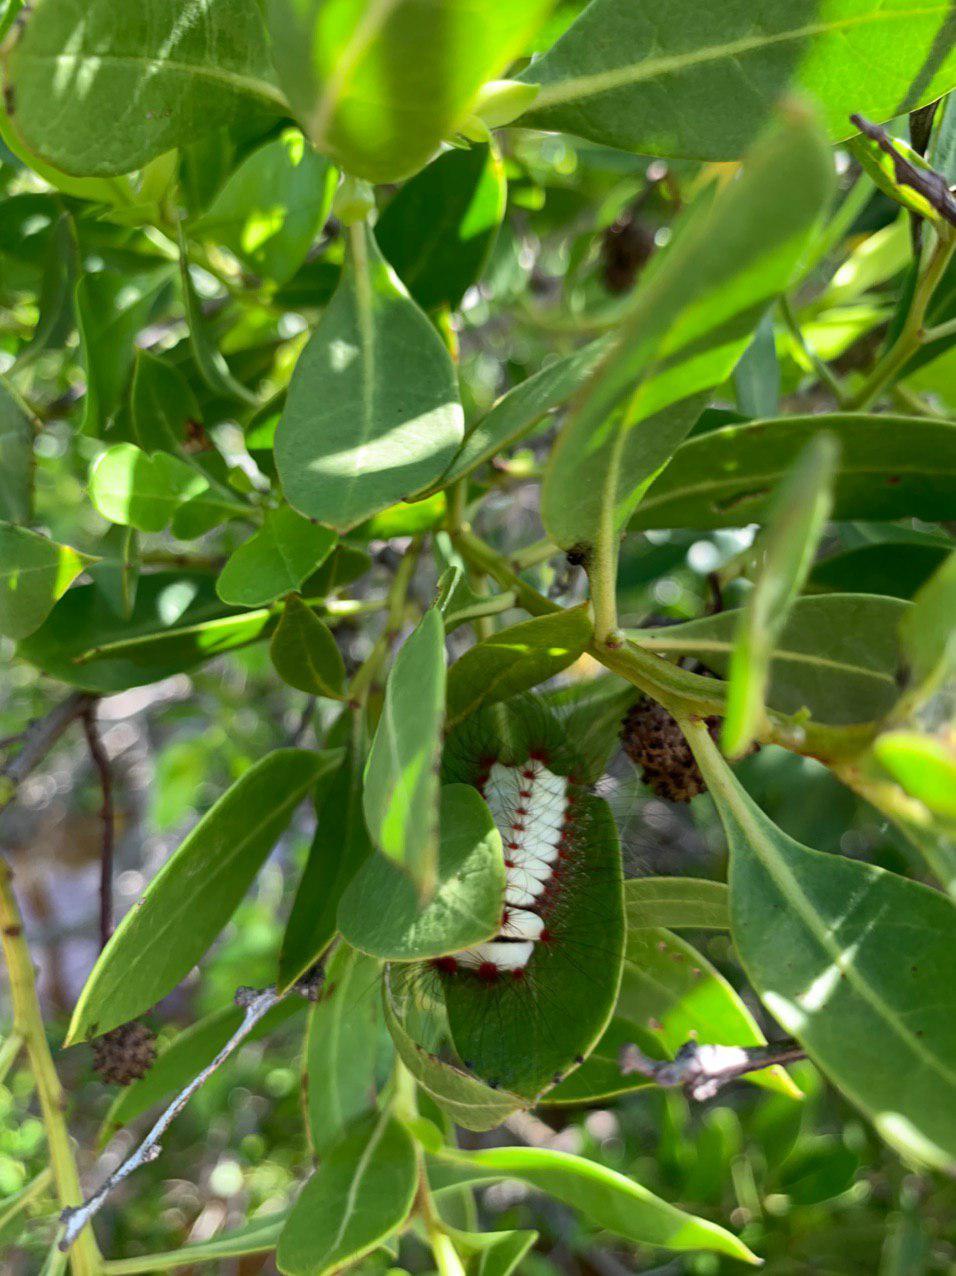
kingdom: Animalia
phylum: Arthropoda
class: Insecta
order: Lepidoptera
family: Megalopygidae
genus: Megalopyge
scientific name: Megalopyge lanata
